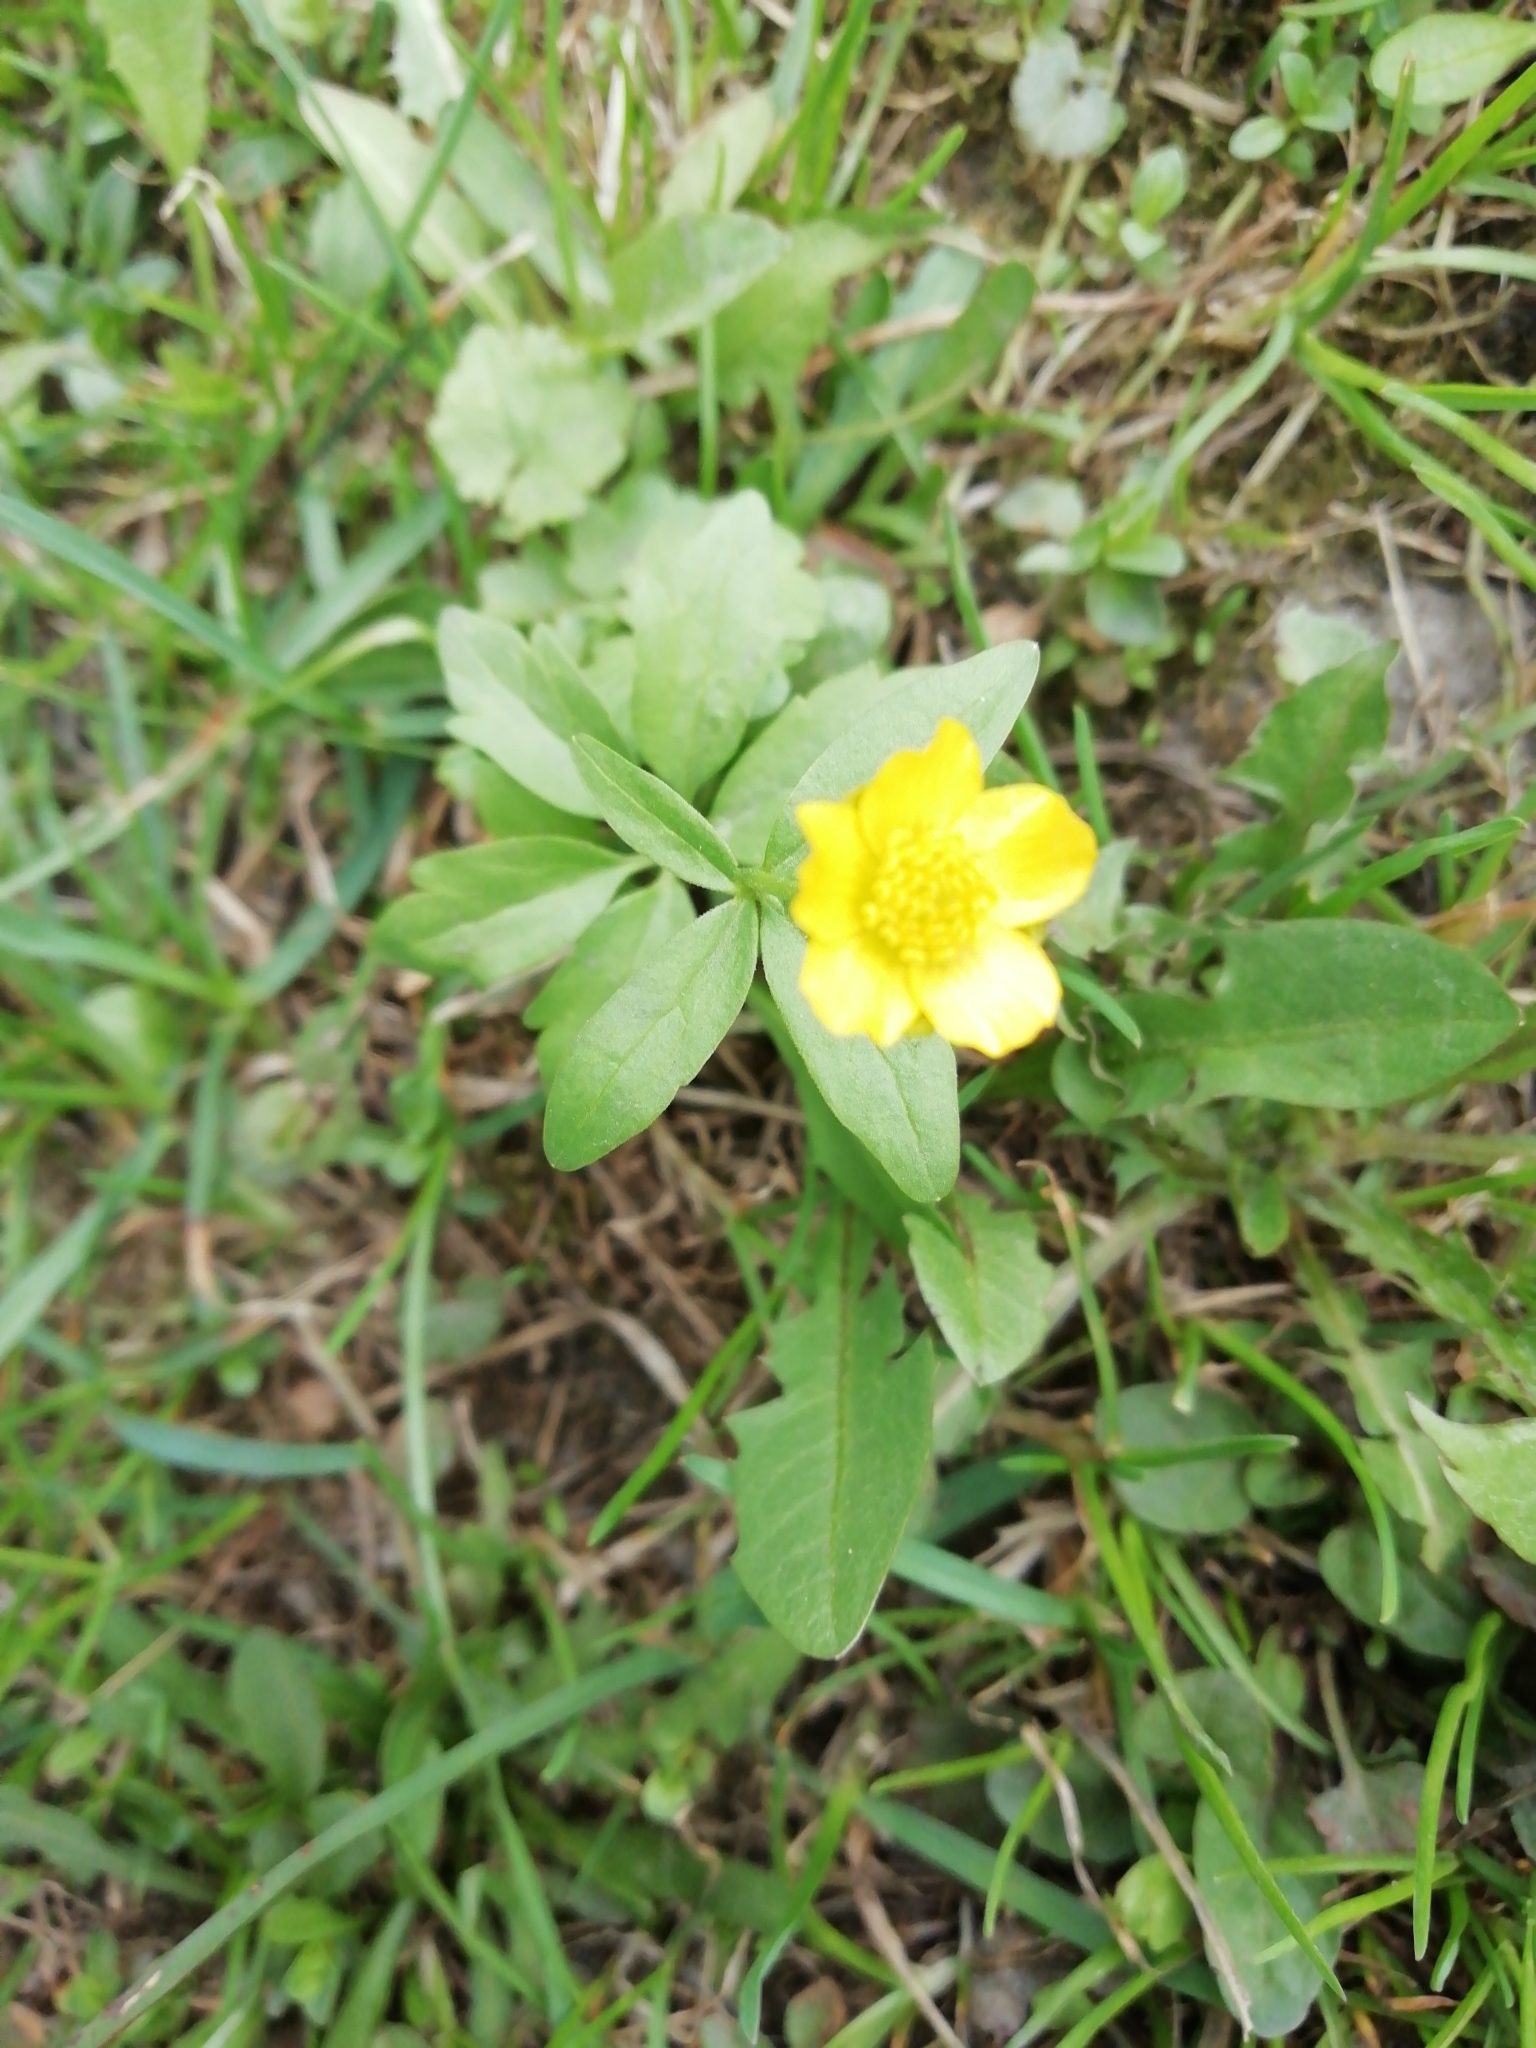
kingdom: Plantae
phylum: Tracheophyta
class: Magnoliopsida
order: Ranunculales
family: Ranunculaceae
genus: Ranunculus
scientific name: Ranunculus monophyllus
